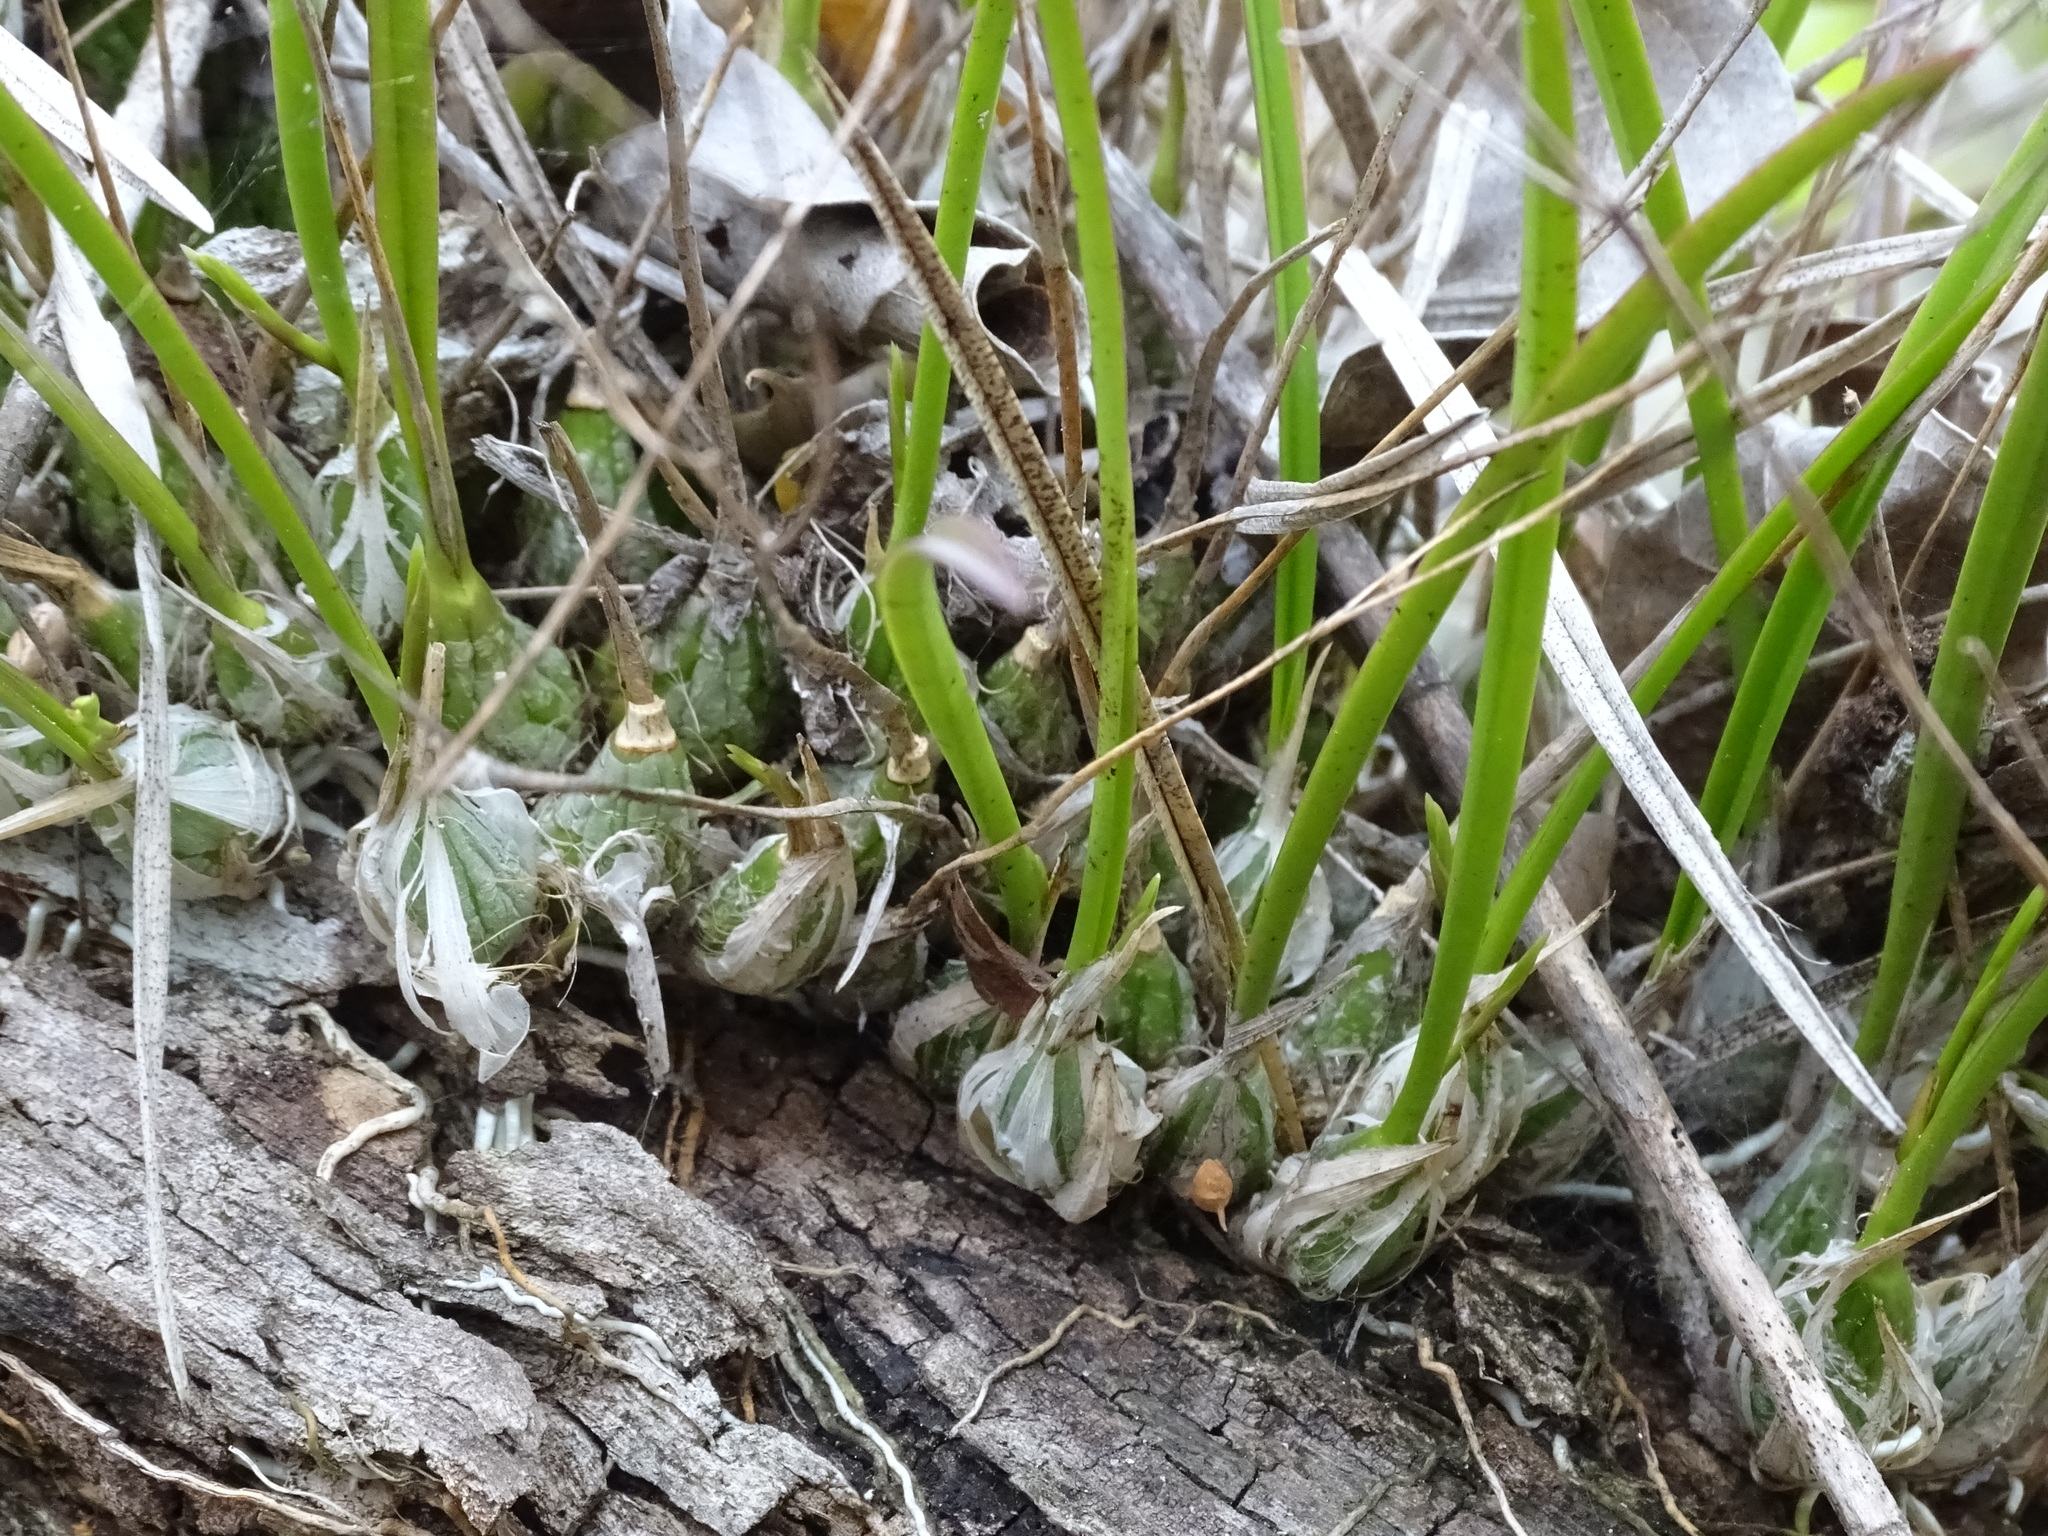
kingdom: Plantae
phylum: Tracheophyta
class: Liliopsida
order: Asparagales
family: Orchidaceae
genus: Encyclia
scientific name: Encyclia nematocaulon
